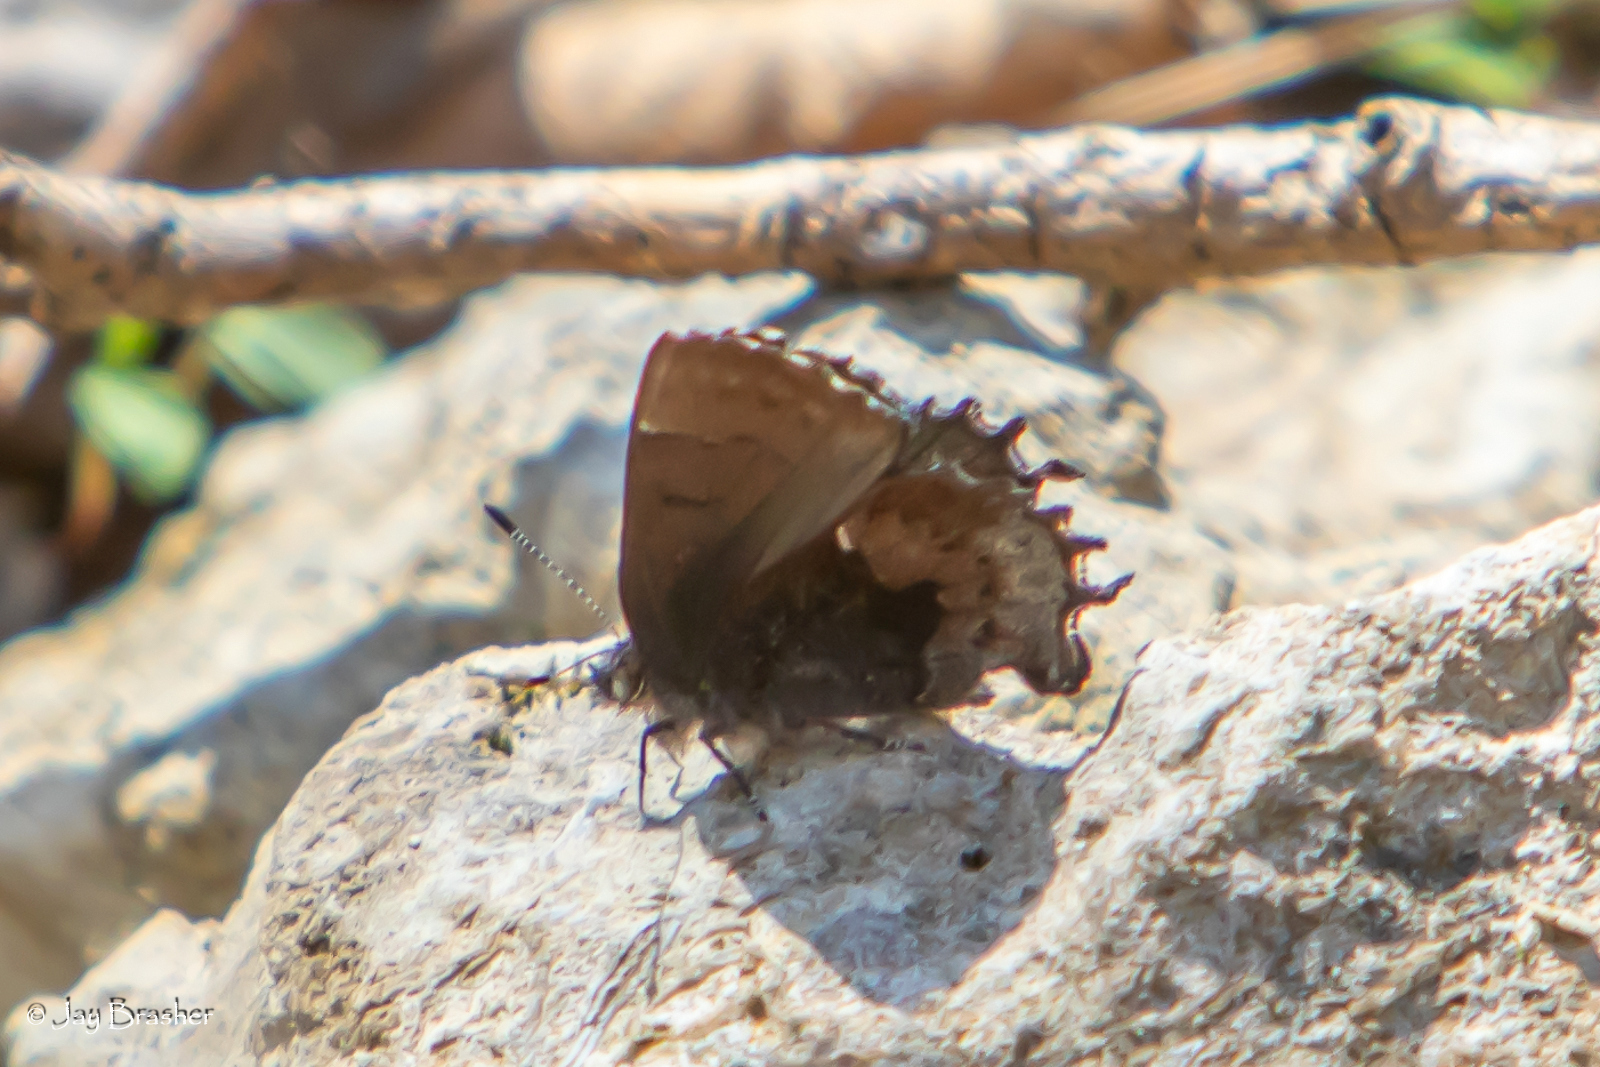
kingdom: Animalia
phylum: Arthropoda
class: Insecta
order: Lepidoptera
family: Lycaenidae
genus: Incisalia
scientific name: Incisalia henrici
